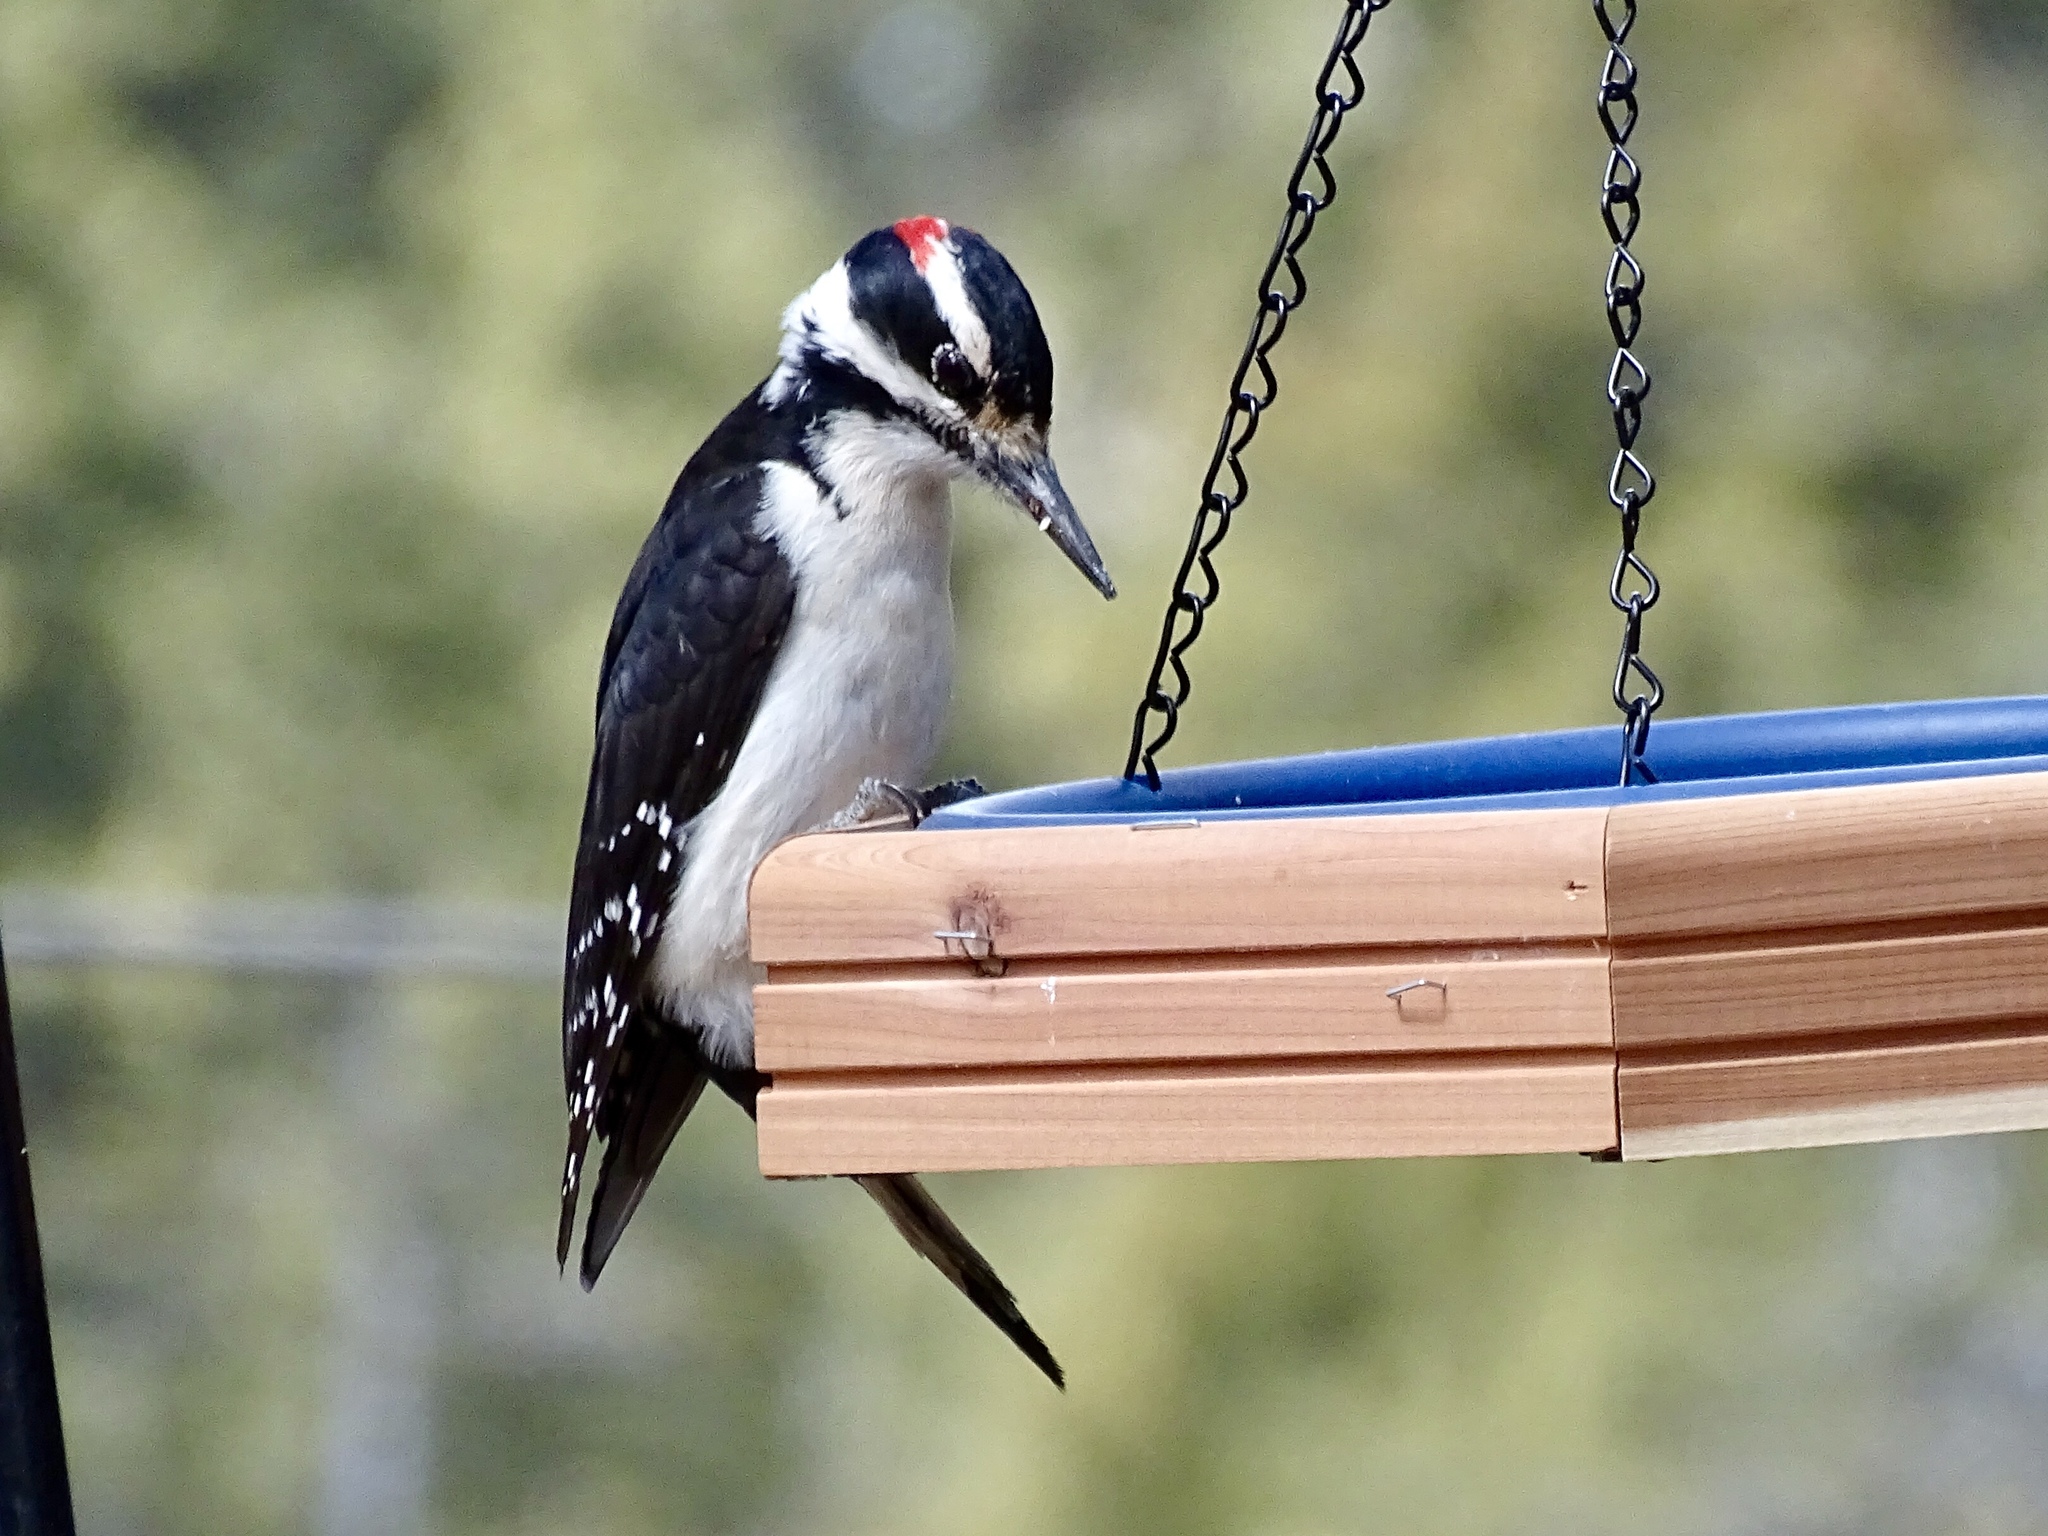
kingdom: Animalia
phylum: Chordata
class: Aves
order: Piciformes
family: Picidae
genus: Leuconotopicus
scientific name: Leuconotopicus villosus
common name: Hairy woodpecker
